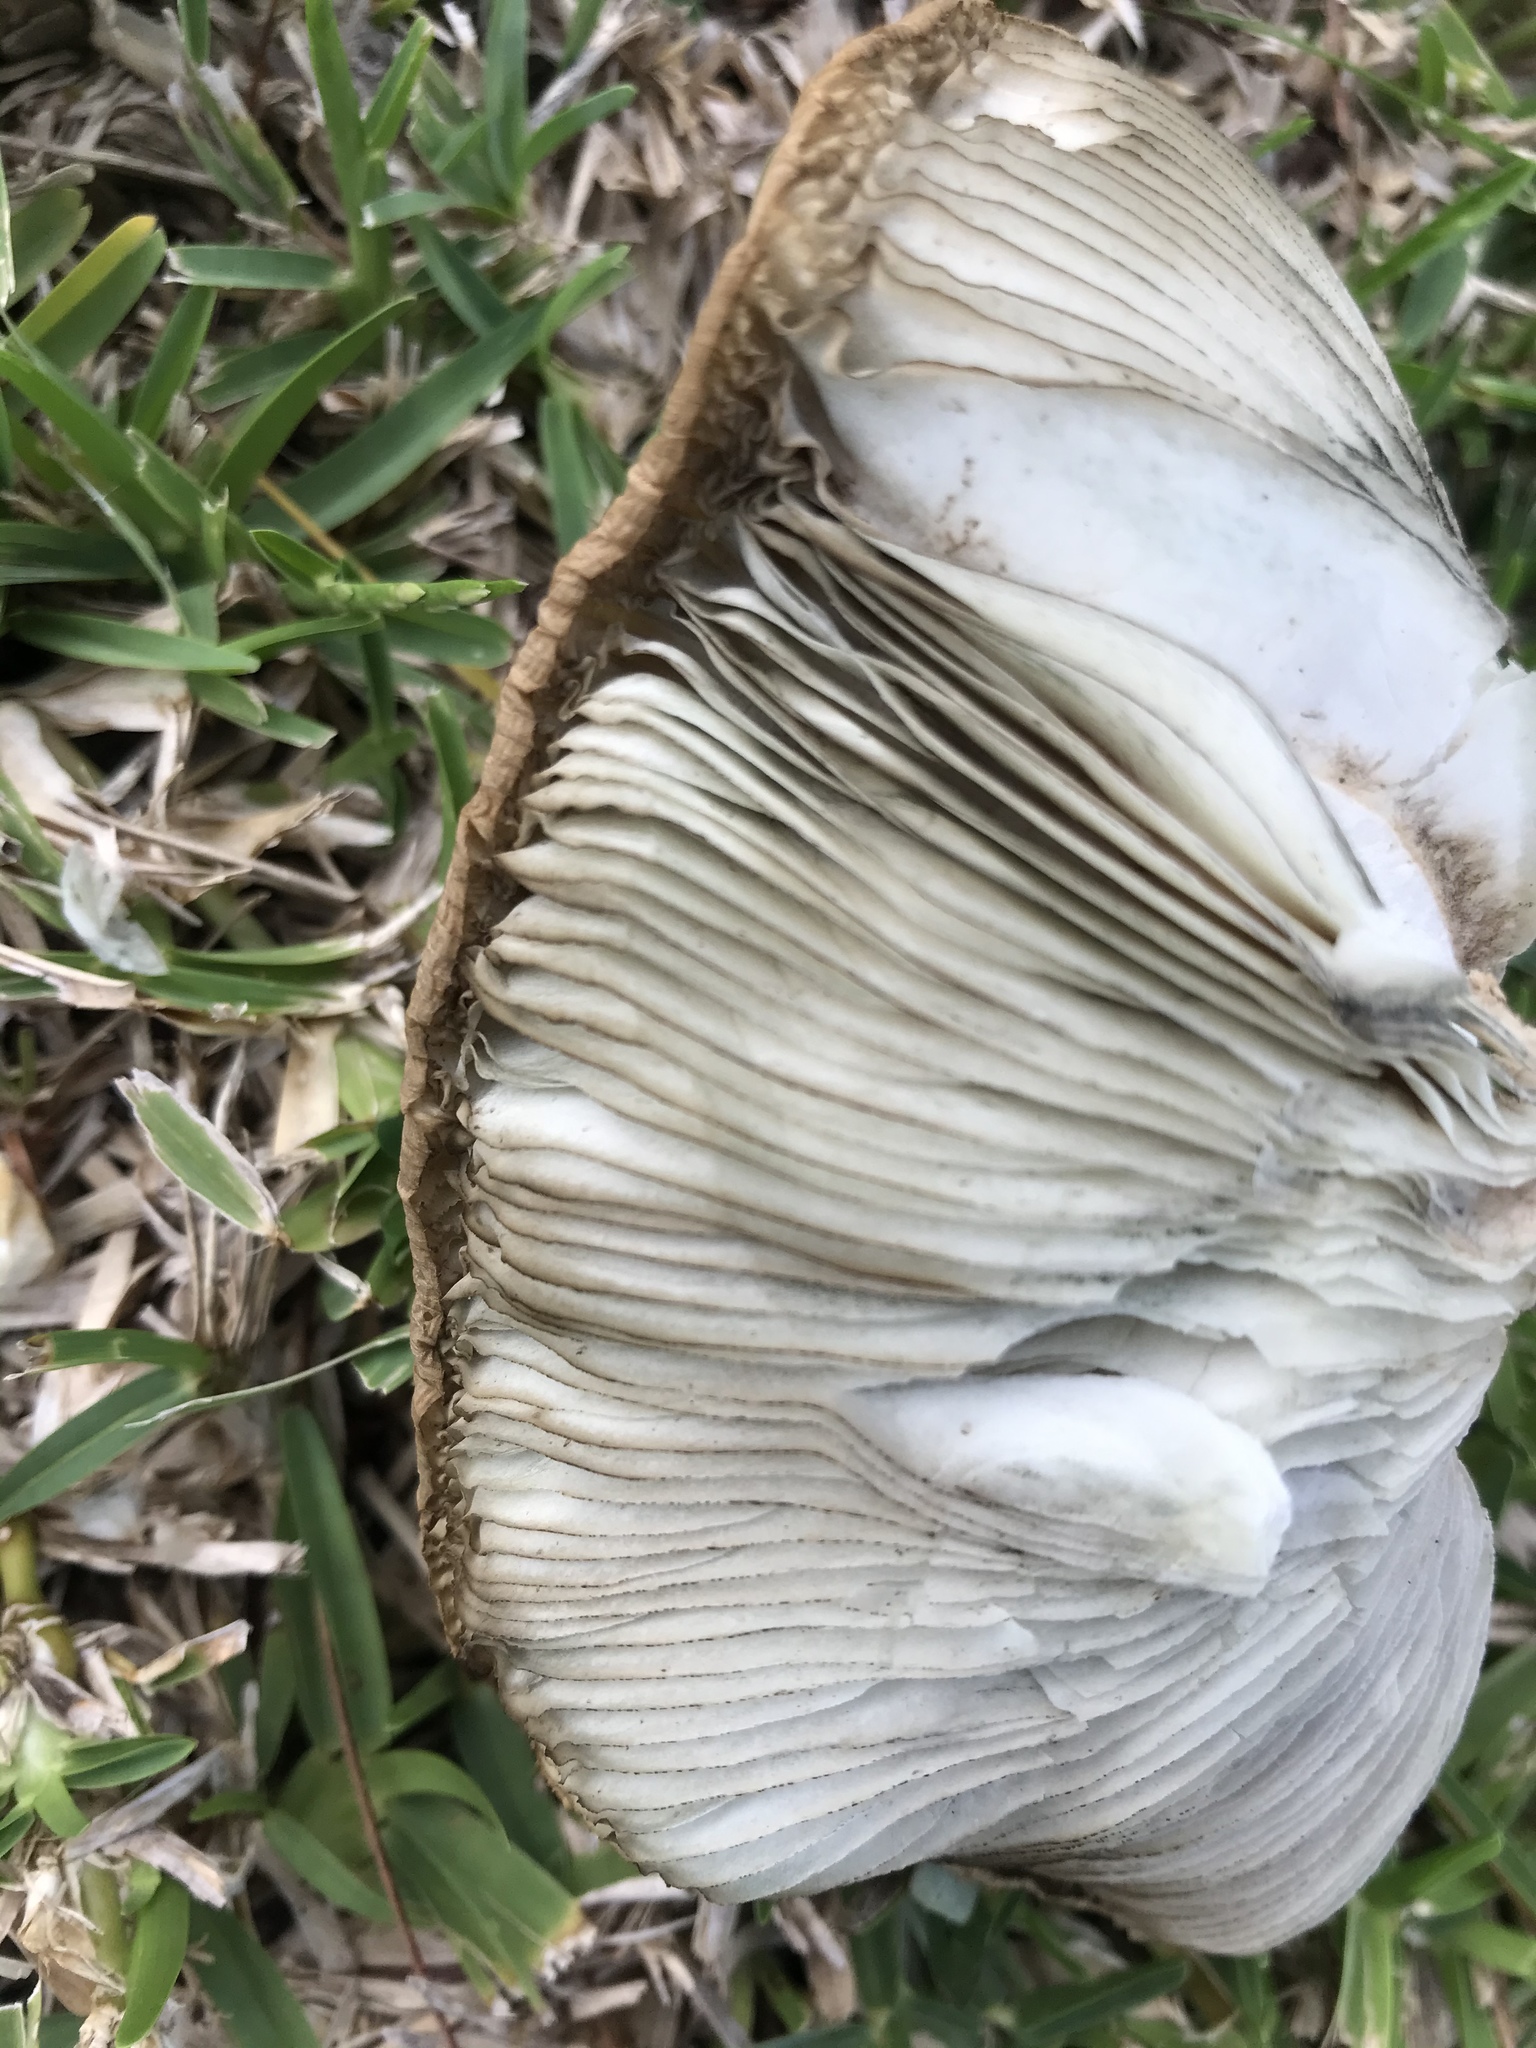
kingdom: Fungi
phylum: Basidiomycota
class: Agaricomycetes
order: Agaricales
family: Agaricaceae
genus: Chlorophyllum
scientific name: Chlorophyllum molybdites
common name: False parasol
